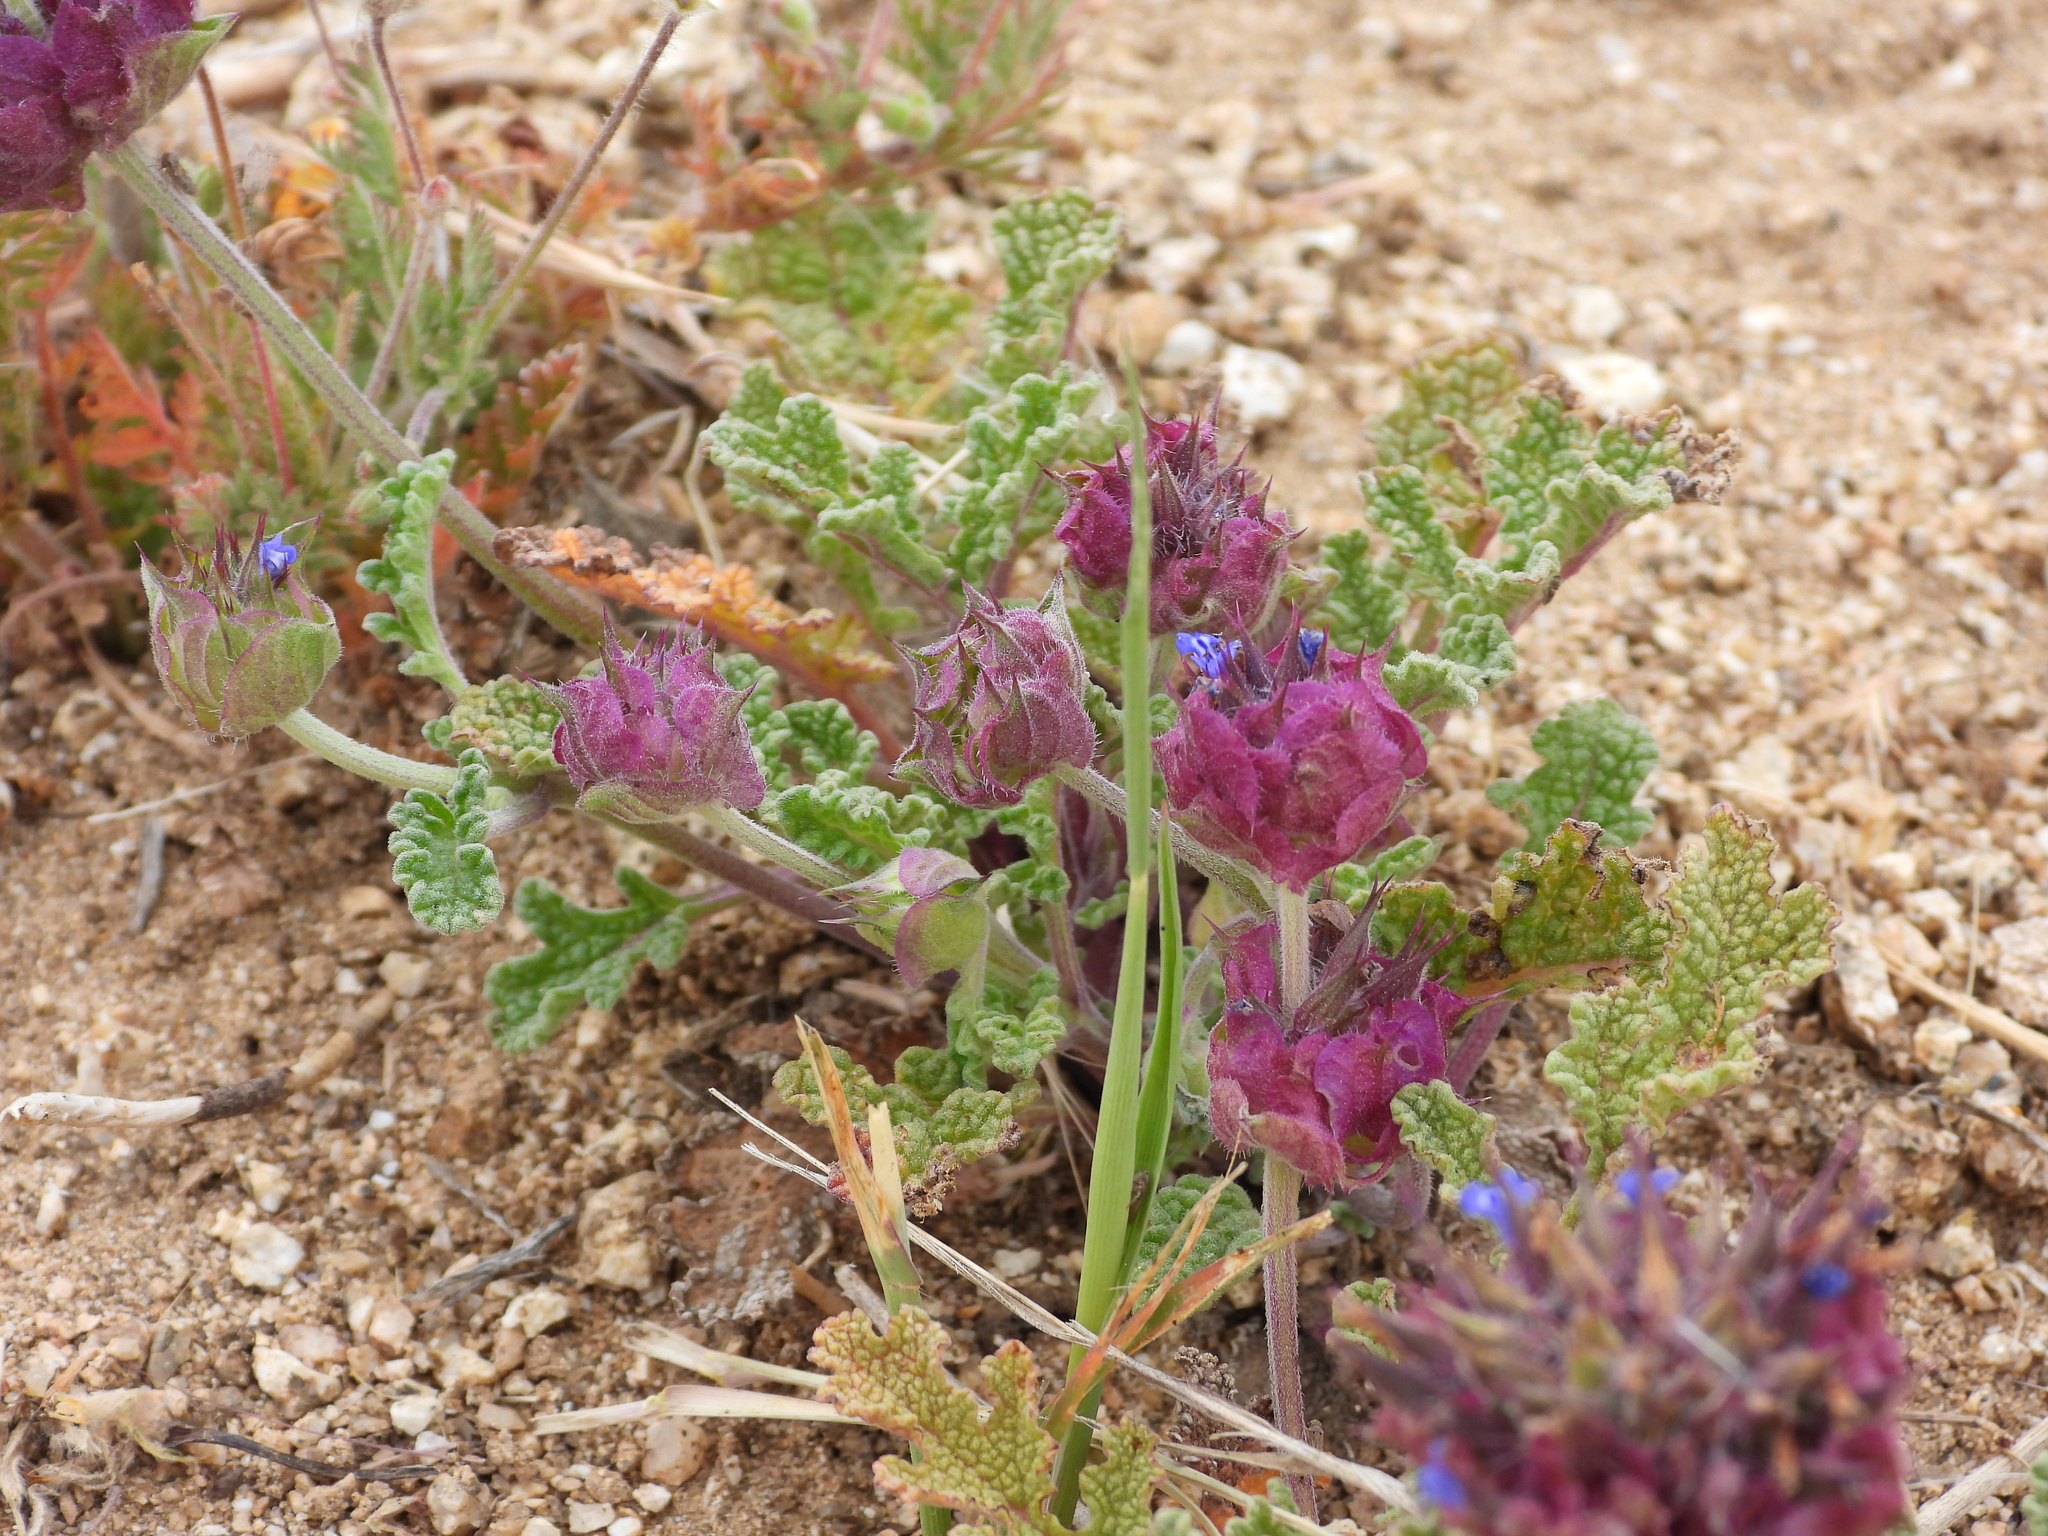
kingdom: Plantae
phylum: Tracheophyta
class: Magnoliopsida
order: Lamiales
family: Lamiaceae
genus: Salvia
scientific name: Salvia columbariae
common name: Chia
